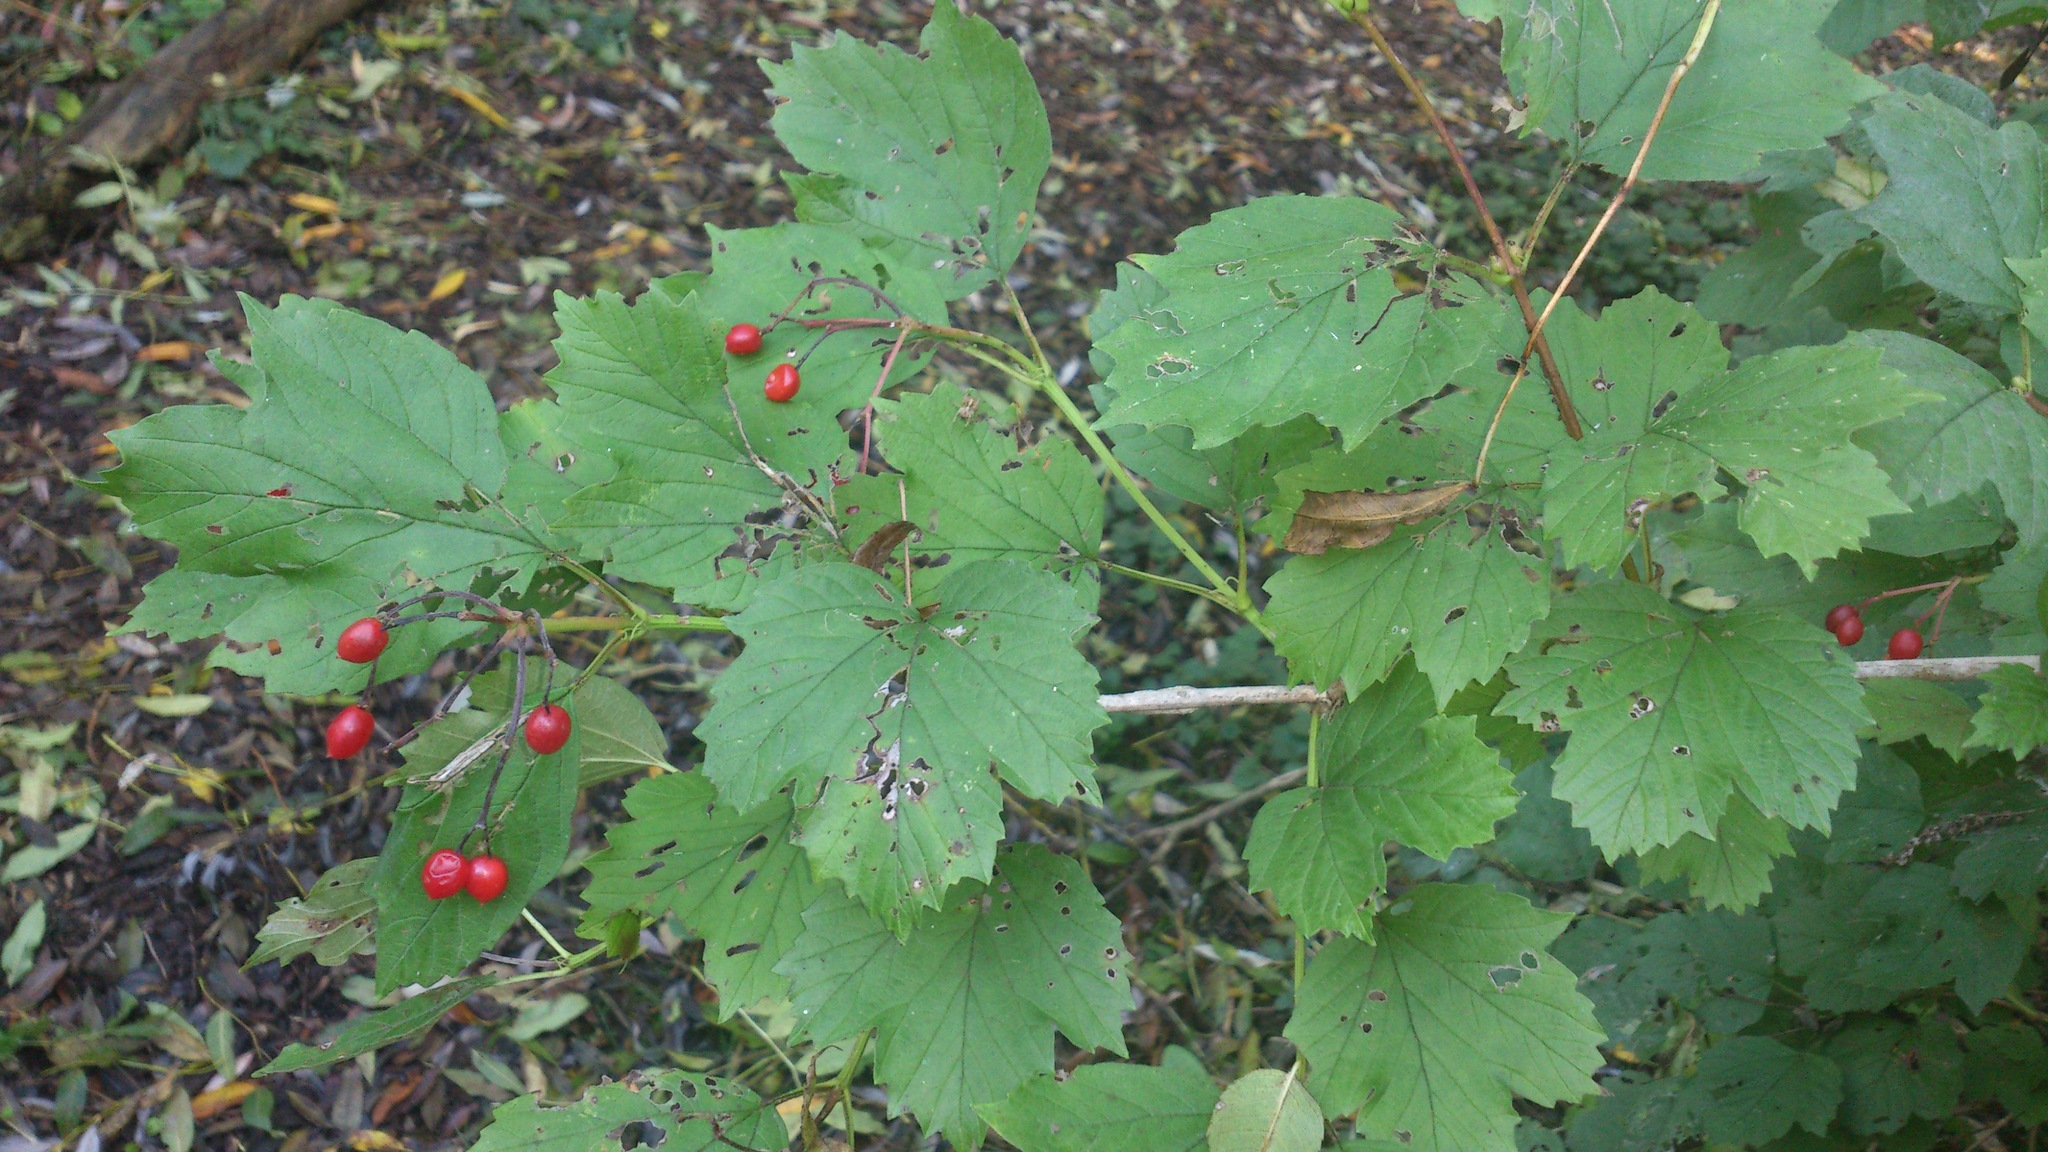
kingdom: Plantae
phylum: Tracheophyta
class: Magnoliopsida
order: Dipsacales
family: Viburnaceae
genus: Viburnum
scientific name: Viburnum opulus
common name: Guelder-rose
